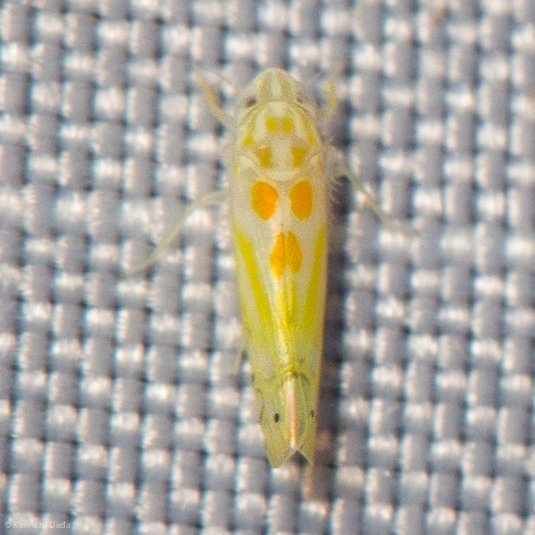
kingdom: Animalia
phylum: Arthropoda
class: Insecta
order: Hemiptera
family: Cicadellidae
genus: Alconeura
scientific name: Alconeura quadrimaculata
